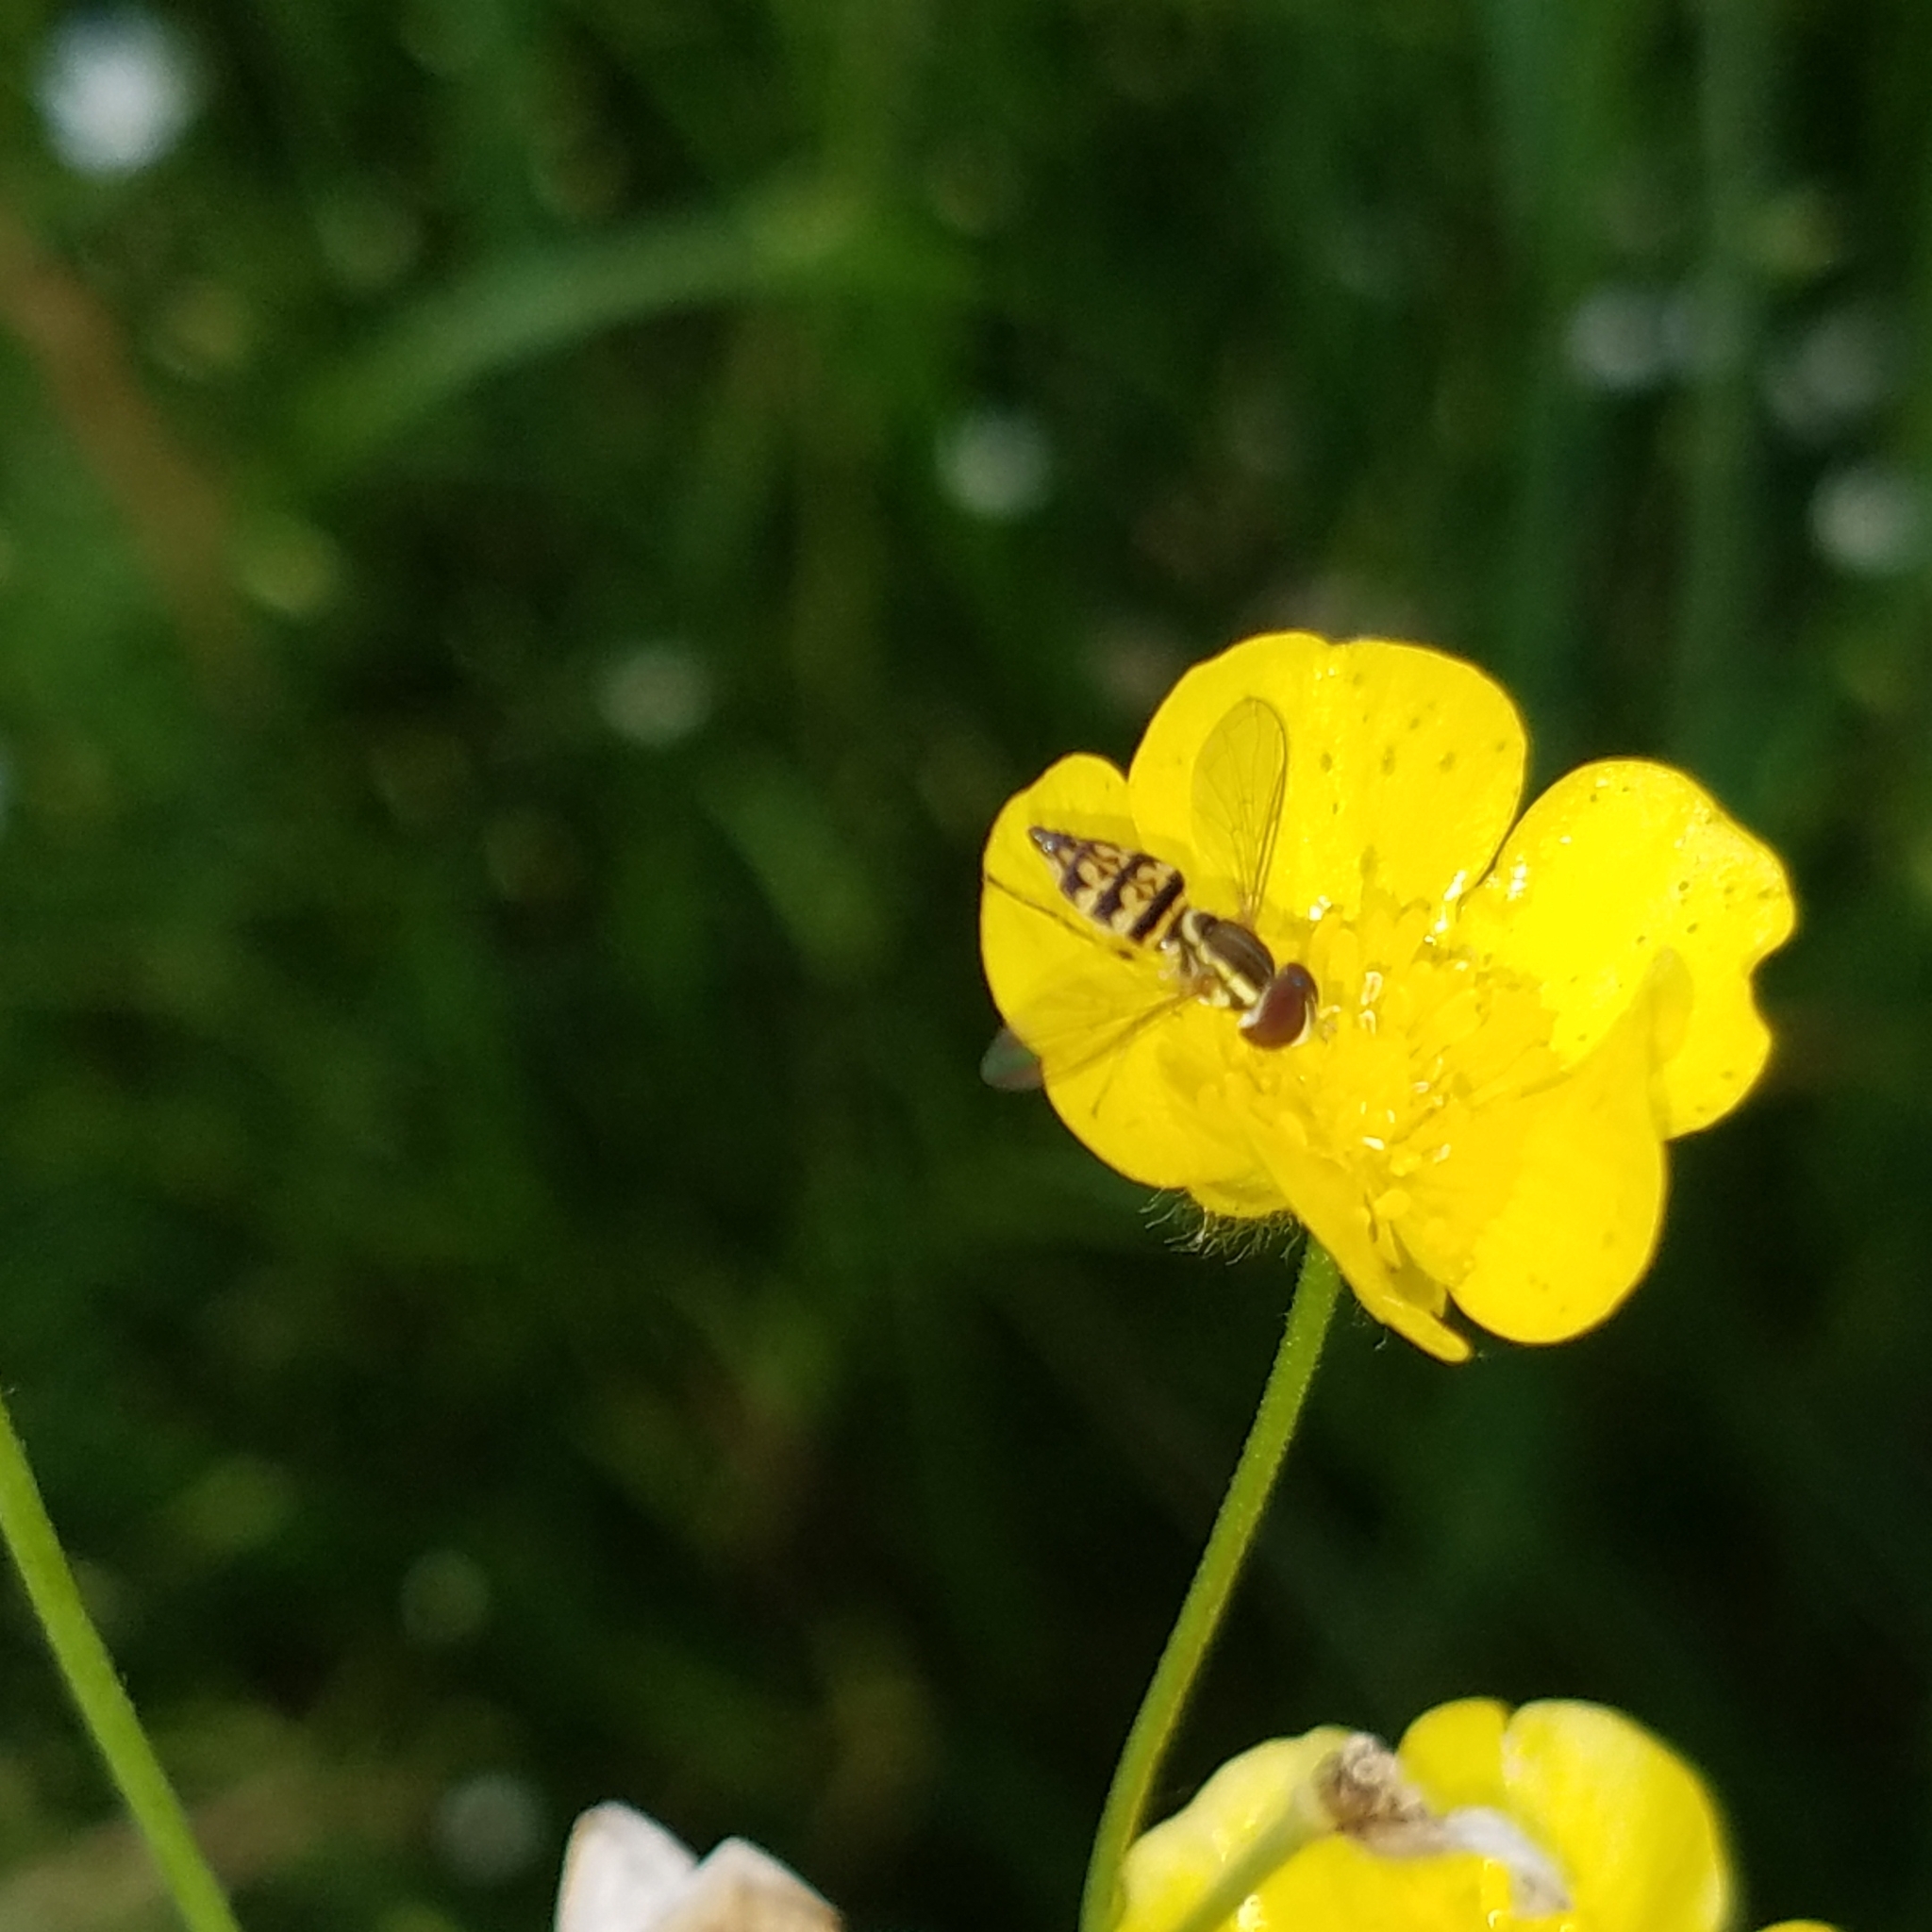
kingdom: Animalia
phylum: Arthropoda
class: Insecta
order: Diptera
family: Syrphidae
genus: Toxomerus
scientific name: Toxomerus geminatus
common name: Eastern calligrapher
